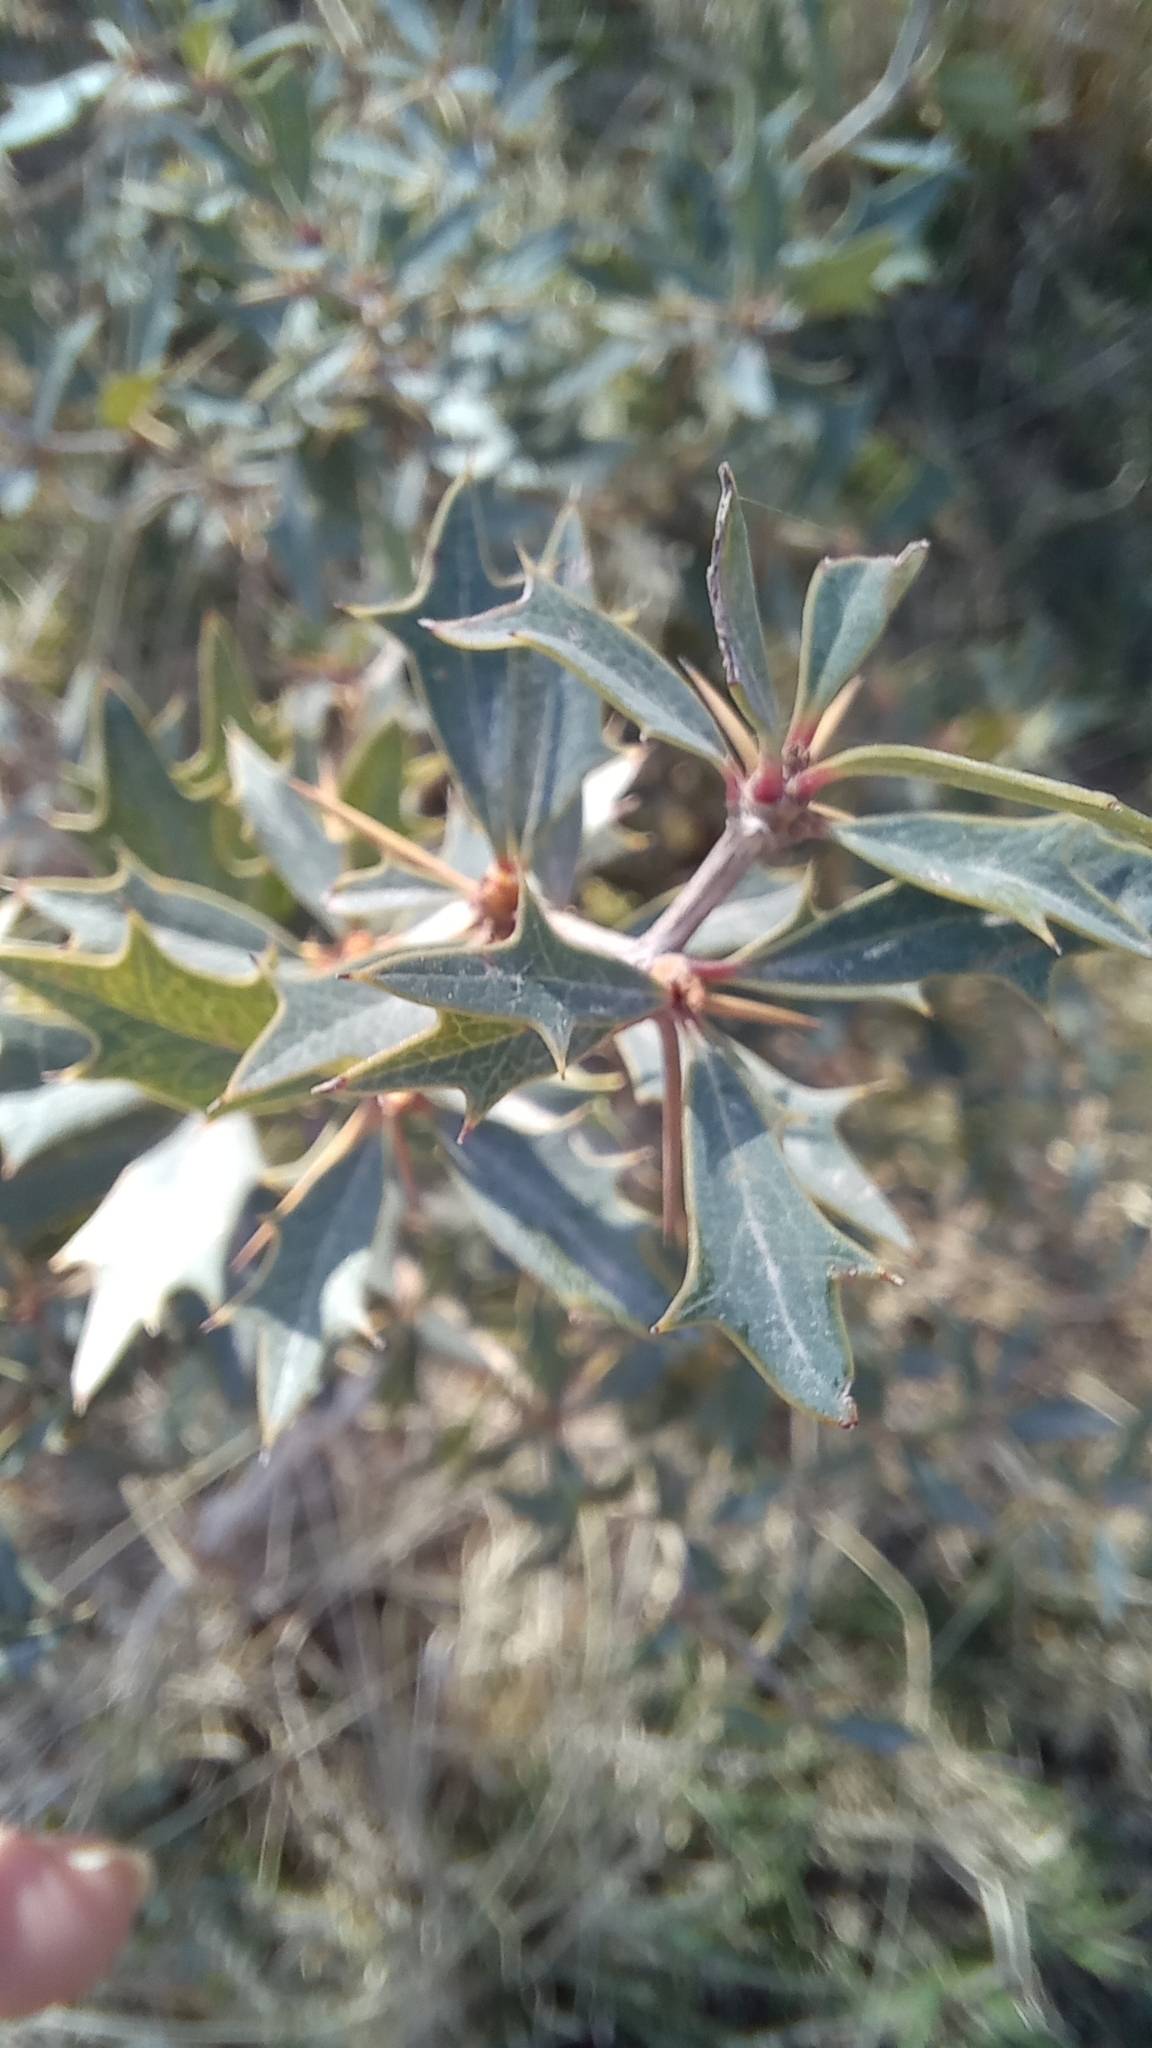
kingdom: Plantae
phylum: Tracheophyta
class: Magnoliopsida
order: Ranunculales
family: Berberidaceae
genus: Berberis
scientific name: Berberis ruscifolia
